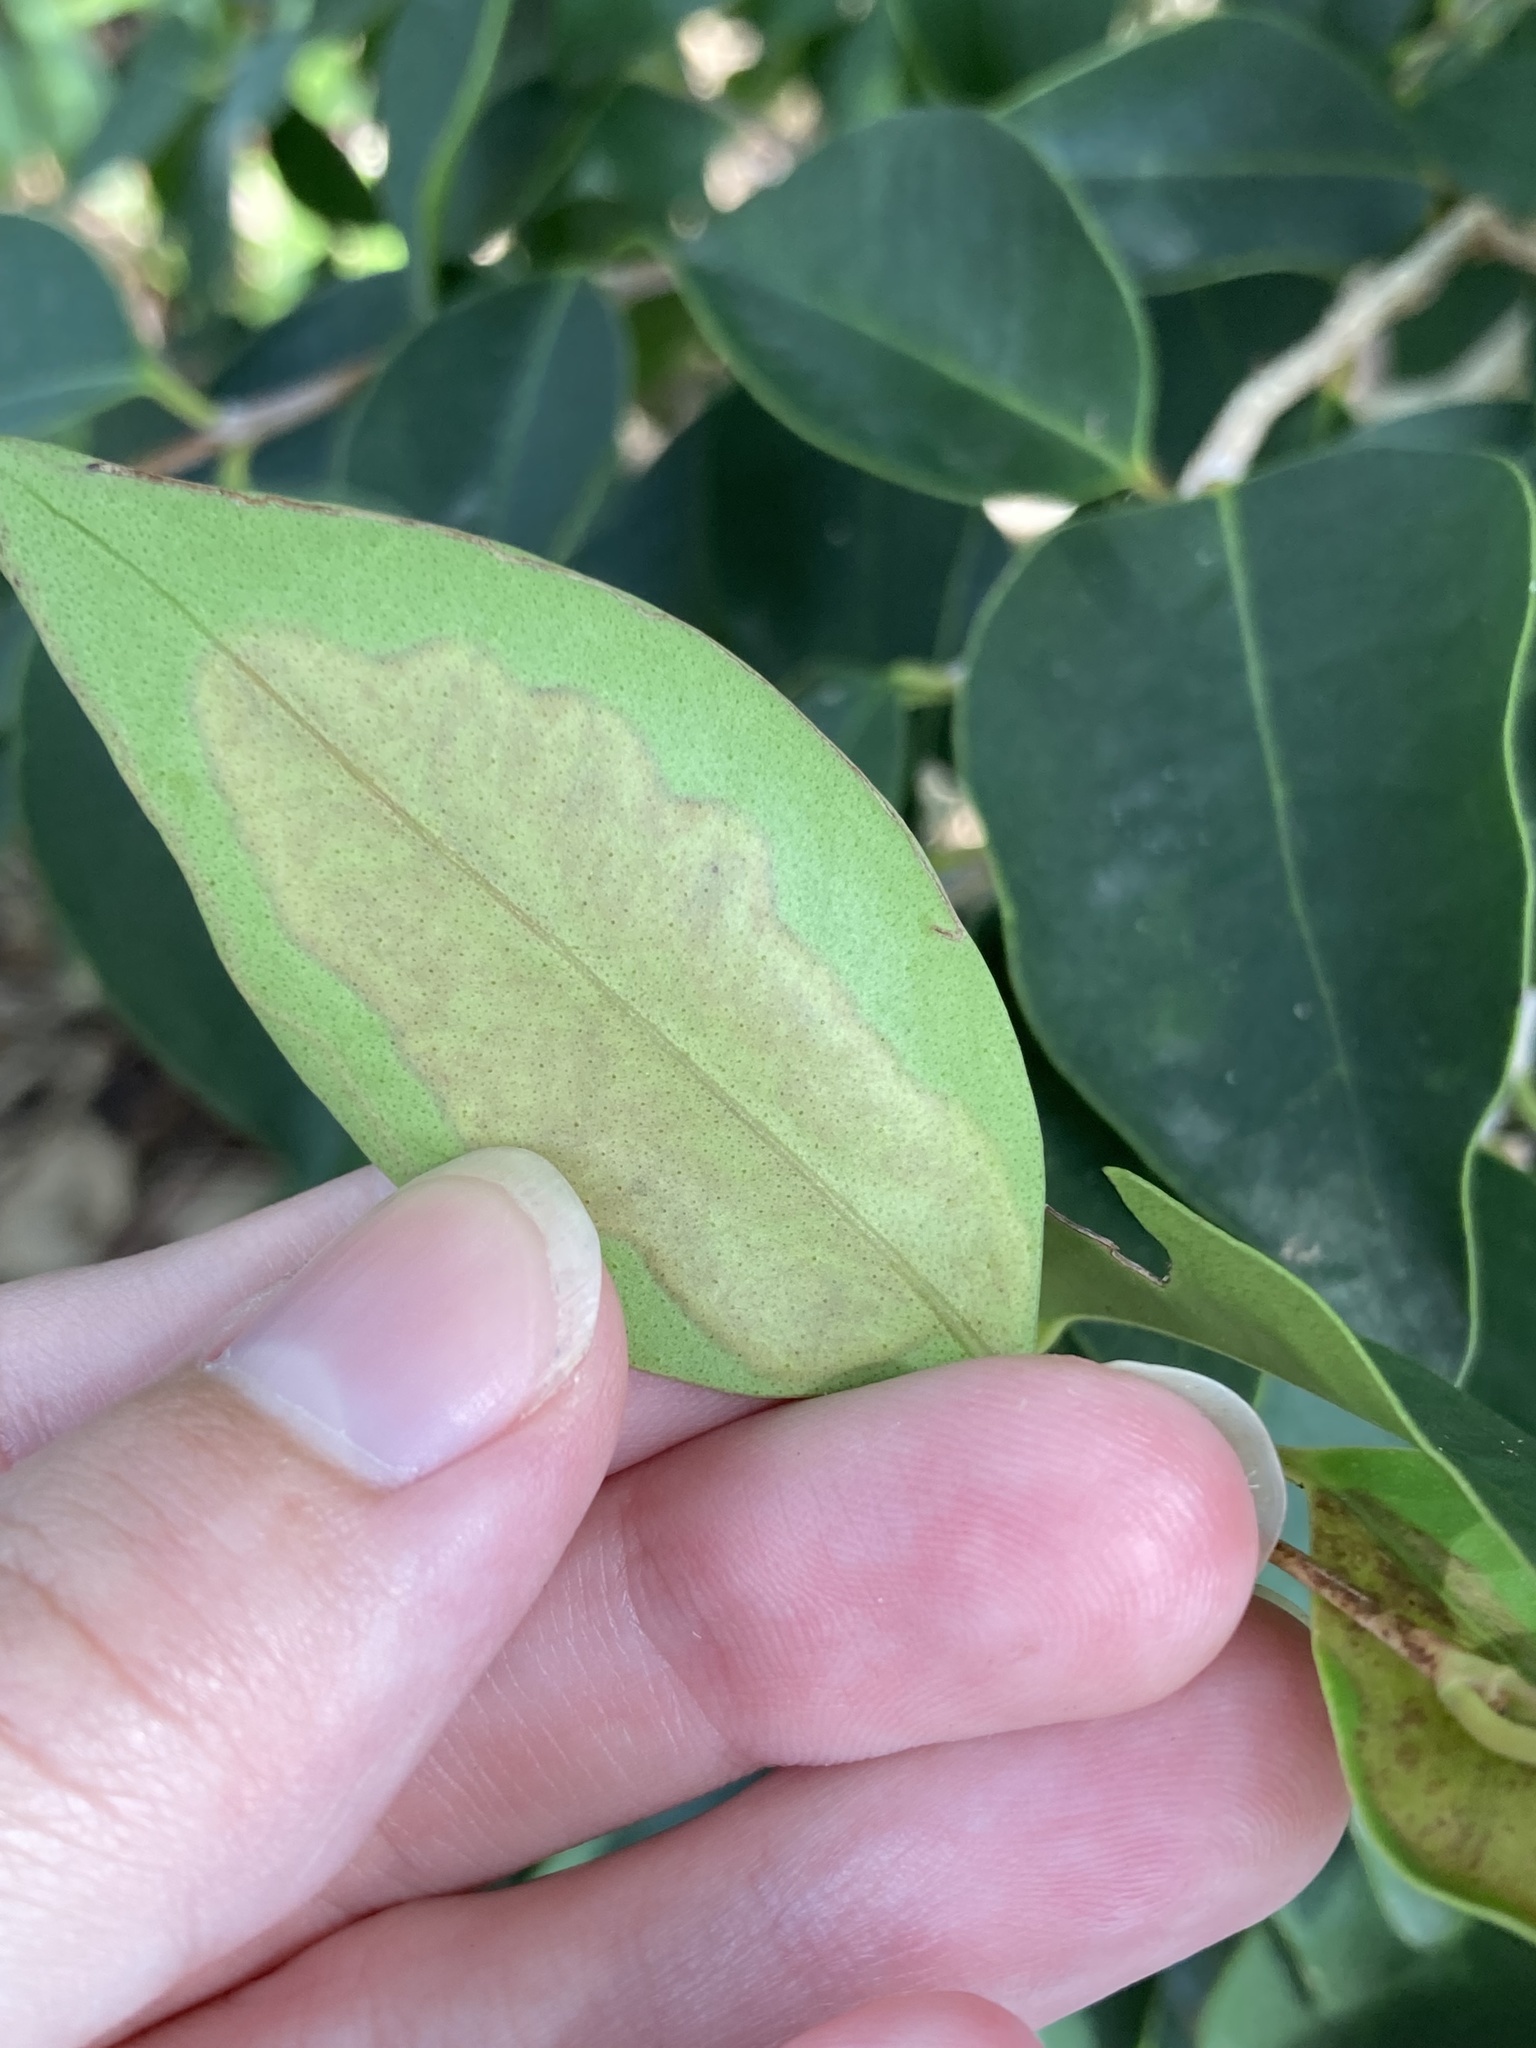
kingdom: Animalia
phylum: Arthropoda
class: Insecta
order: Lepidoptera
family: Gracillariidae
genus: Chilocampyla
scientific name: Chilocampyla dyariella
